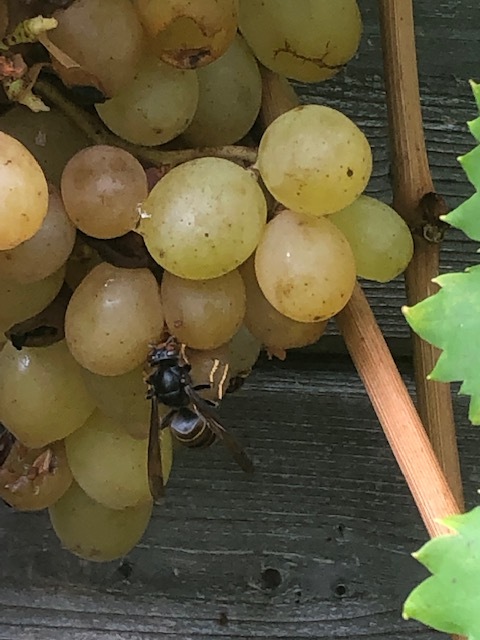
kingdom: Animalia
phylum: Arthropoda
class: Insecta
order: Hymenoptera
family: Vespidae
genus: Vespa
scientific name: Vespa velutina
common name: Asian hornet
